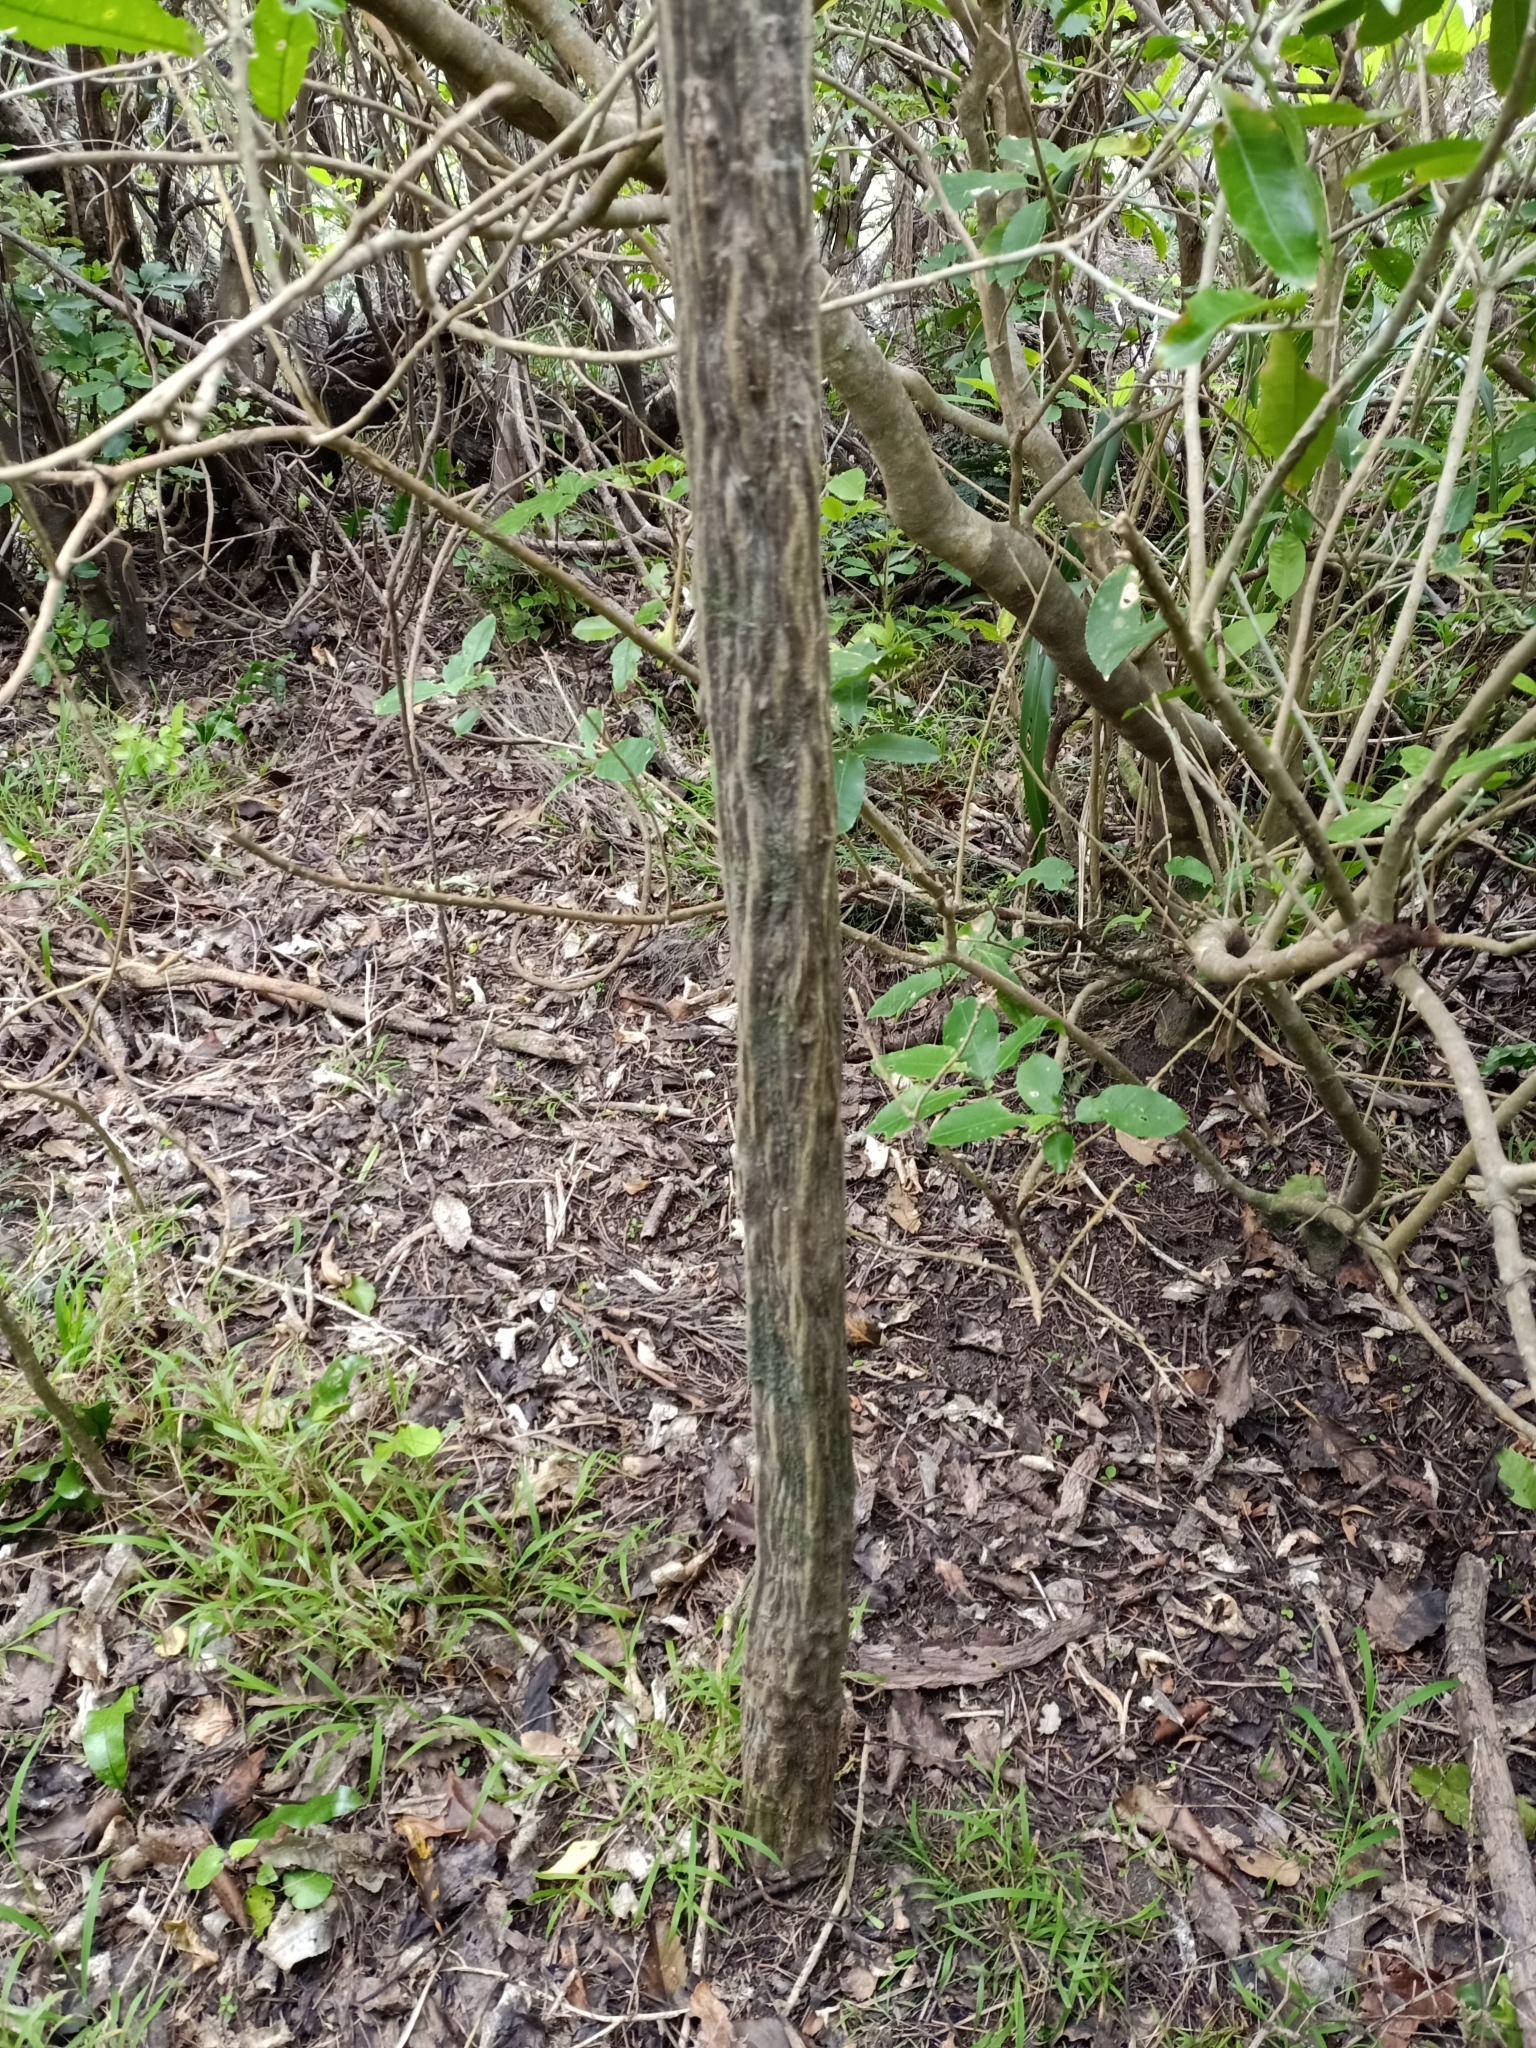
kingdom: Plantae
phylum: Tracheophyta
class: Magnoliopsida
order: Apiales
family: Araliaceae
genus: Pseudopanax
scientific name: Pseudopanax ferox
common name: Fierce lancewood
